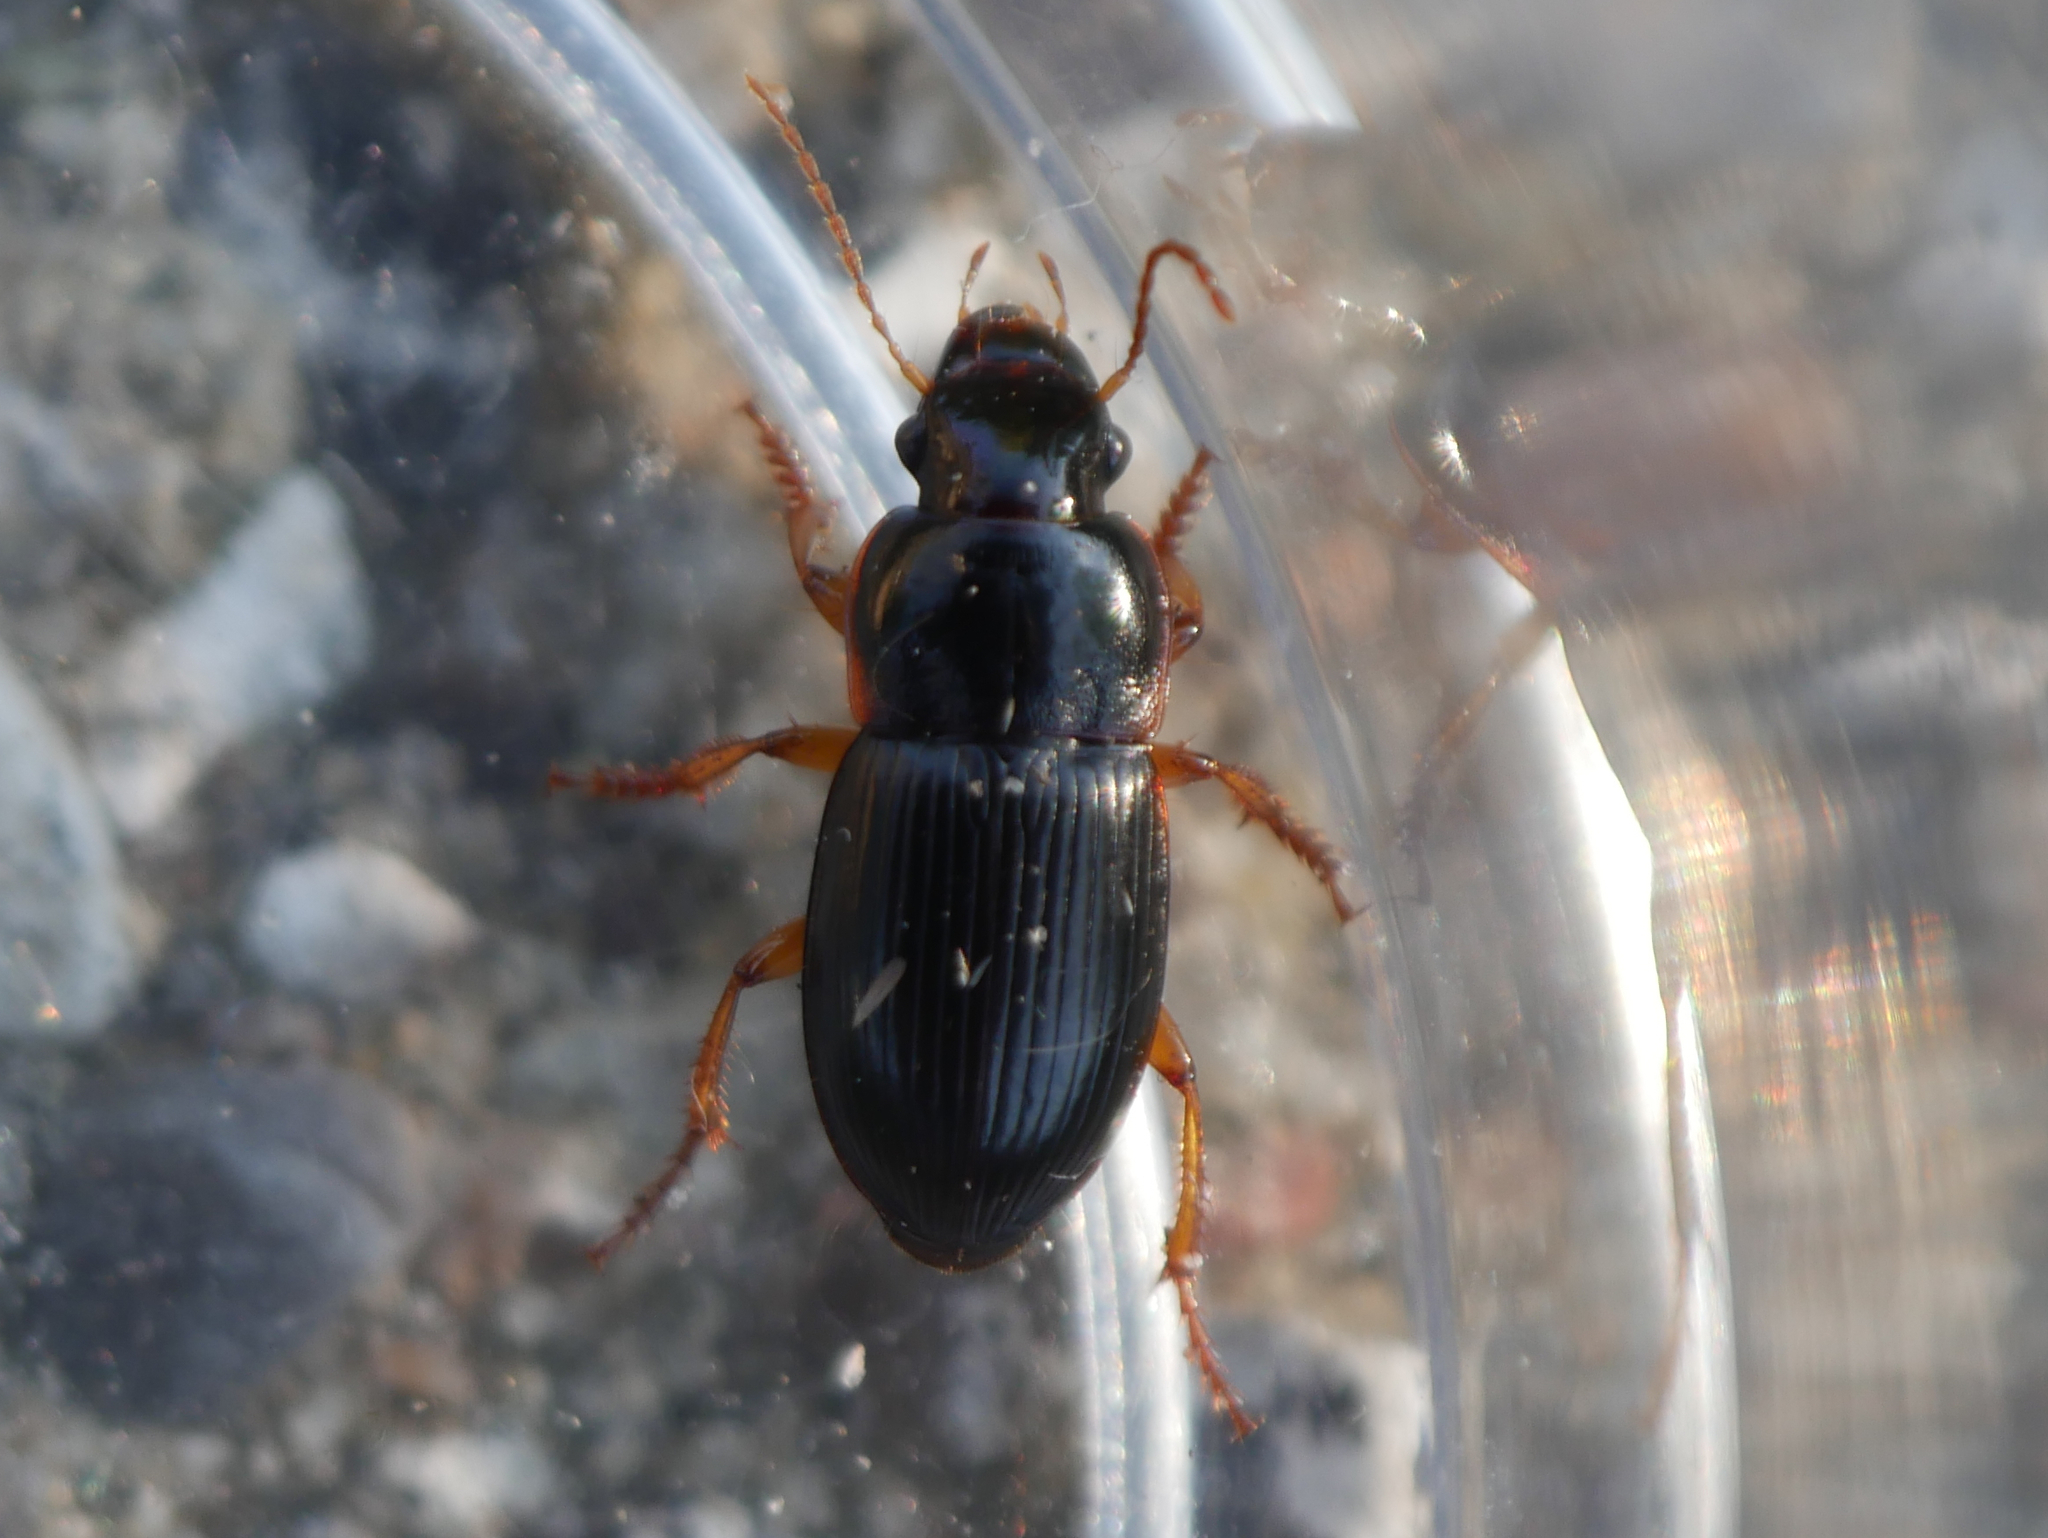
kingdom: Animalia
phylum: Arthropoda
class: Insecta
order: Coleoptera
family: Carabidae
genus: Harpalus
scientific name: Harpalus latus
